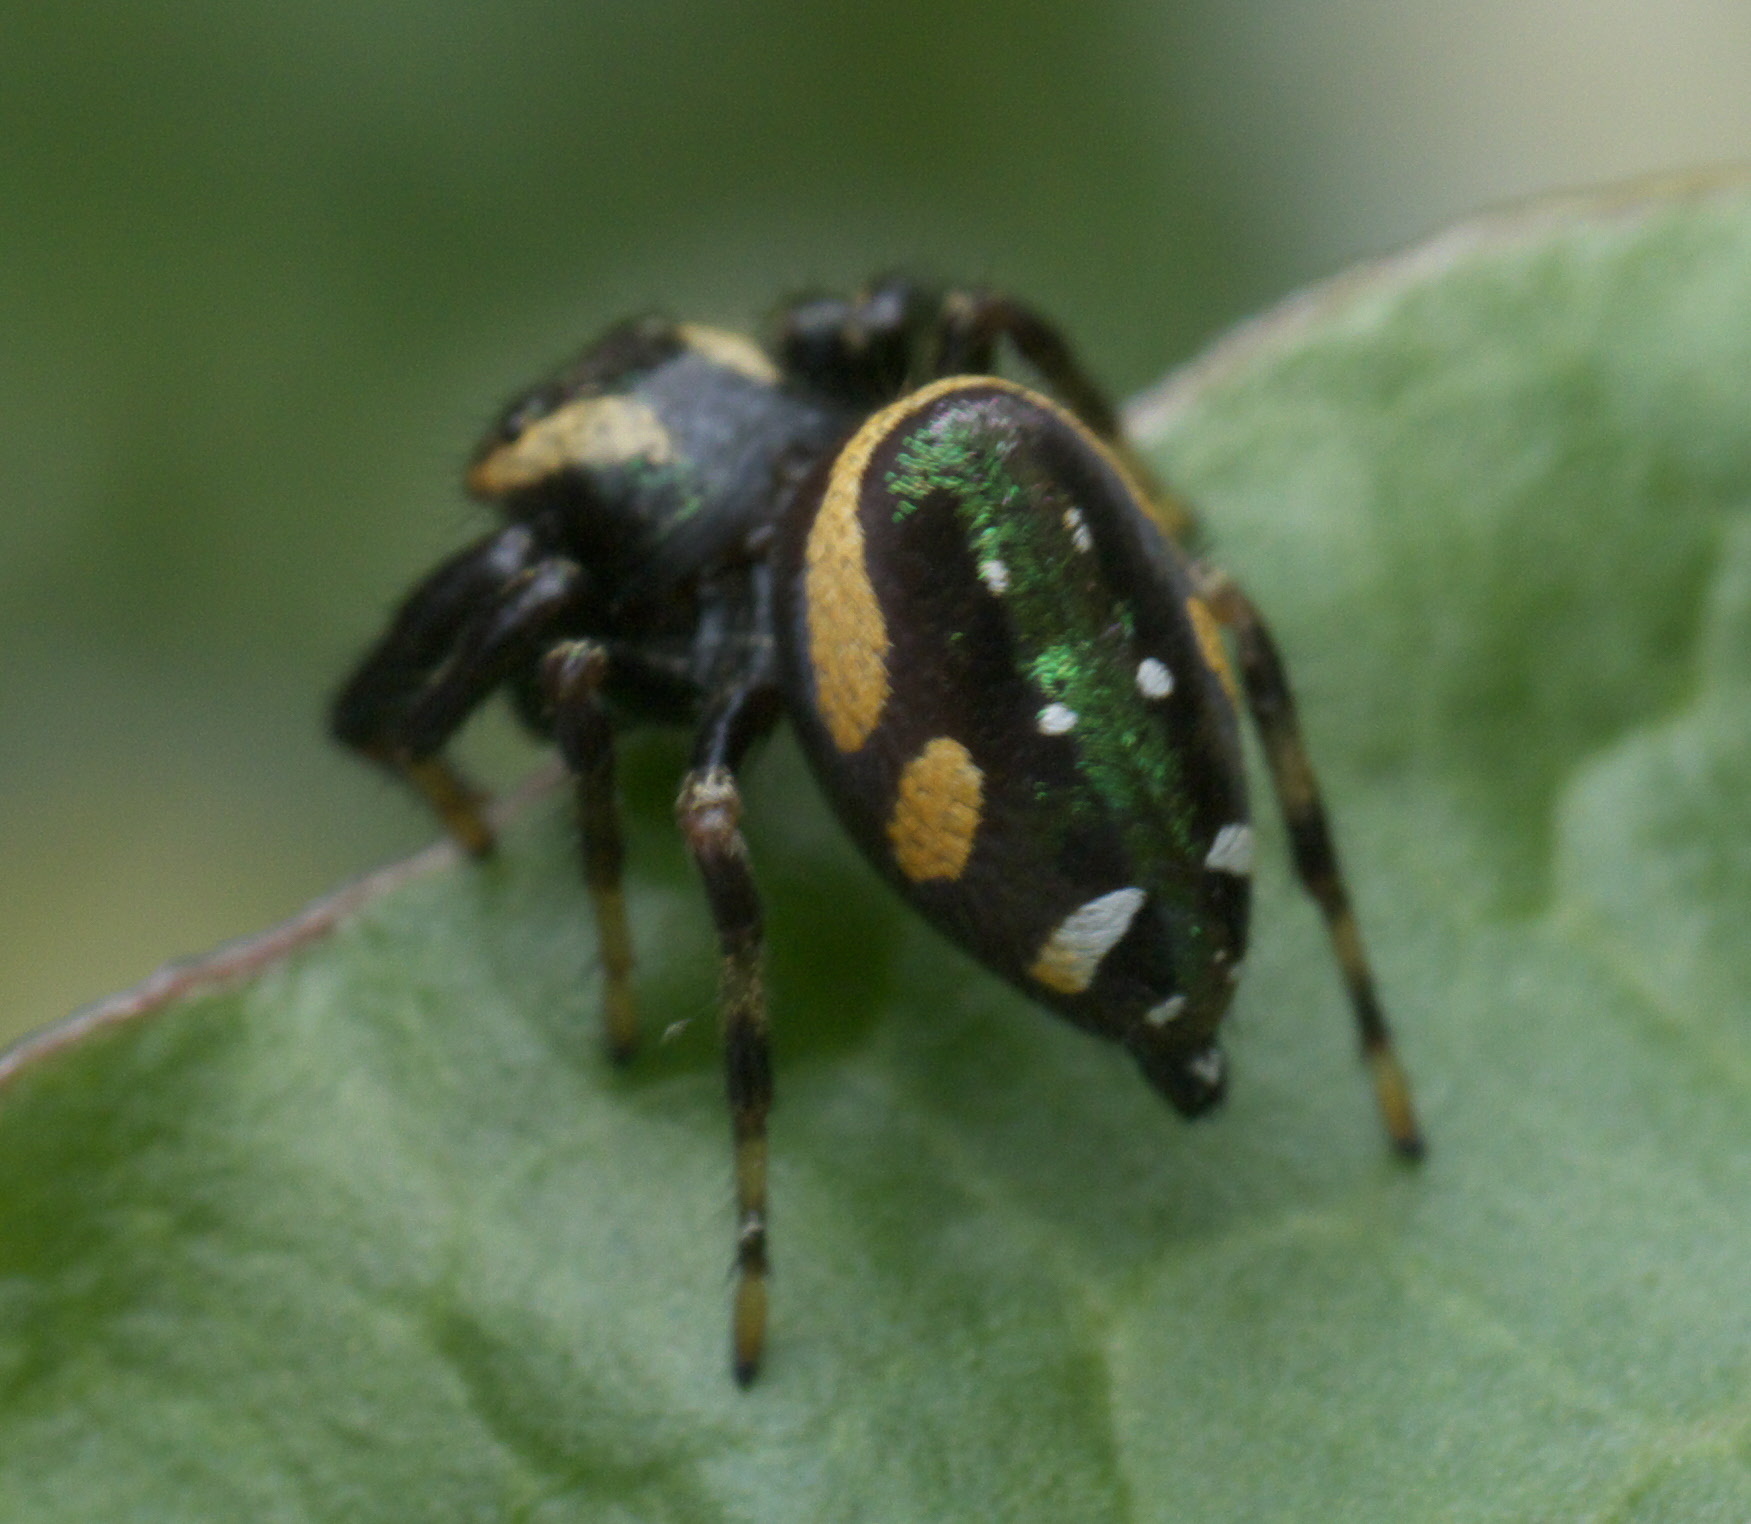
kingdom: Animalia
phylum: Arthropoda
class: Arachnida
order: Araneae
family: Salticidae
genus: Paraphidippus
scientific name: Paraphidippus aurantius
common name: Jumping spiders
